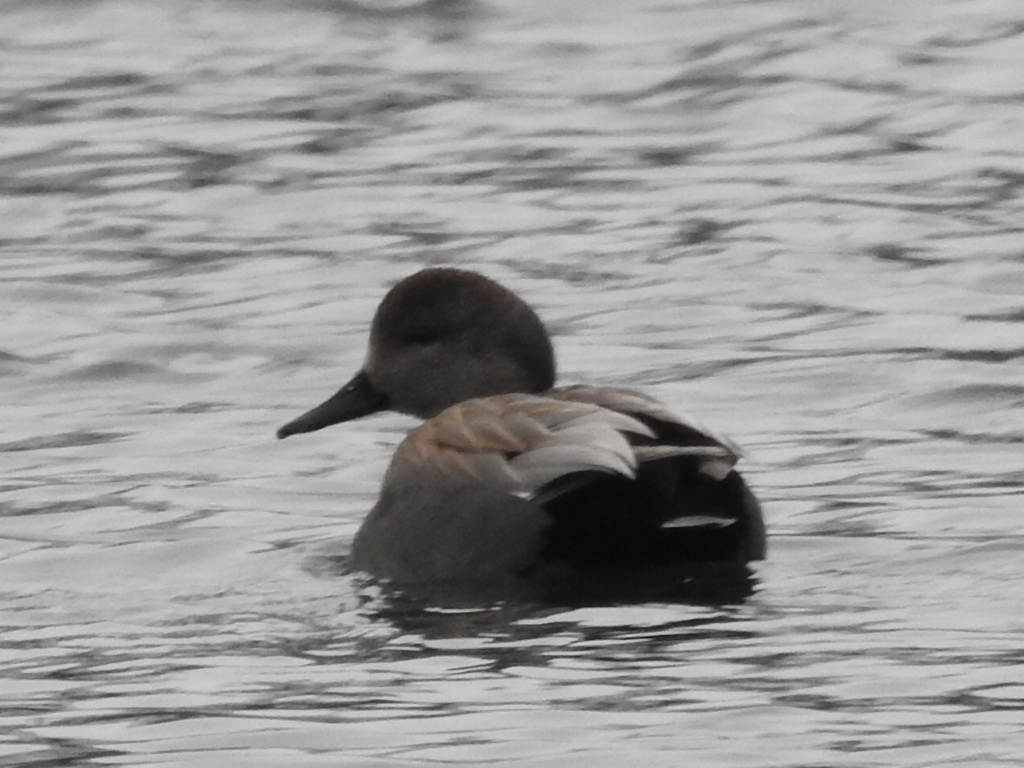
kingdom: Animalia
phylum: Chordata
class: Aves
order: Anseriformes
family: Anatidae
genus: Mareca
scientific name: Mareca strepera
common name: Gadwall
